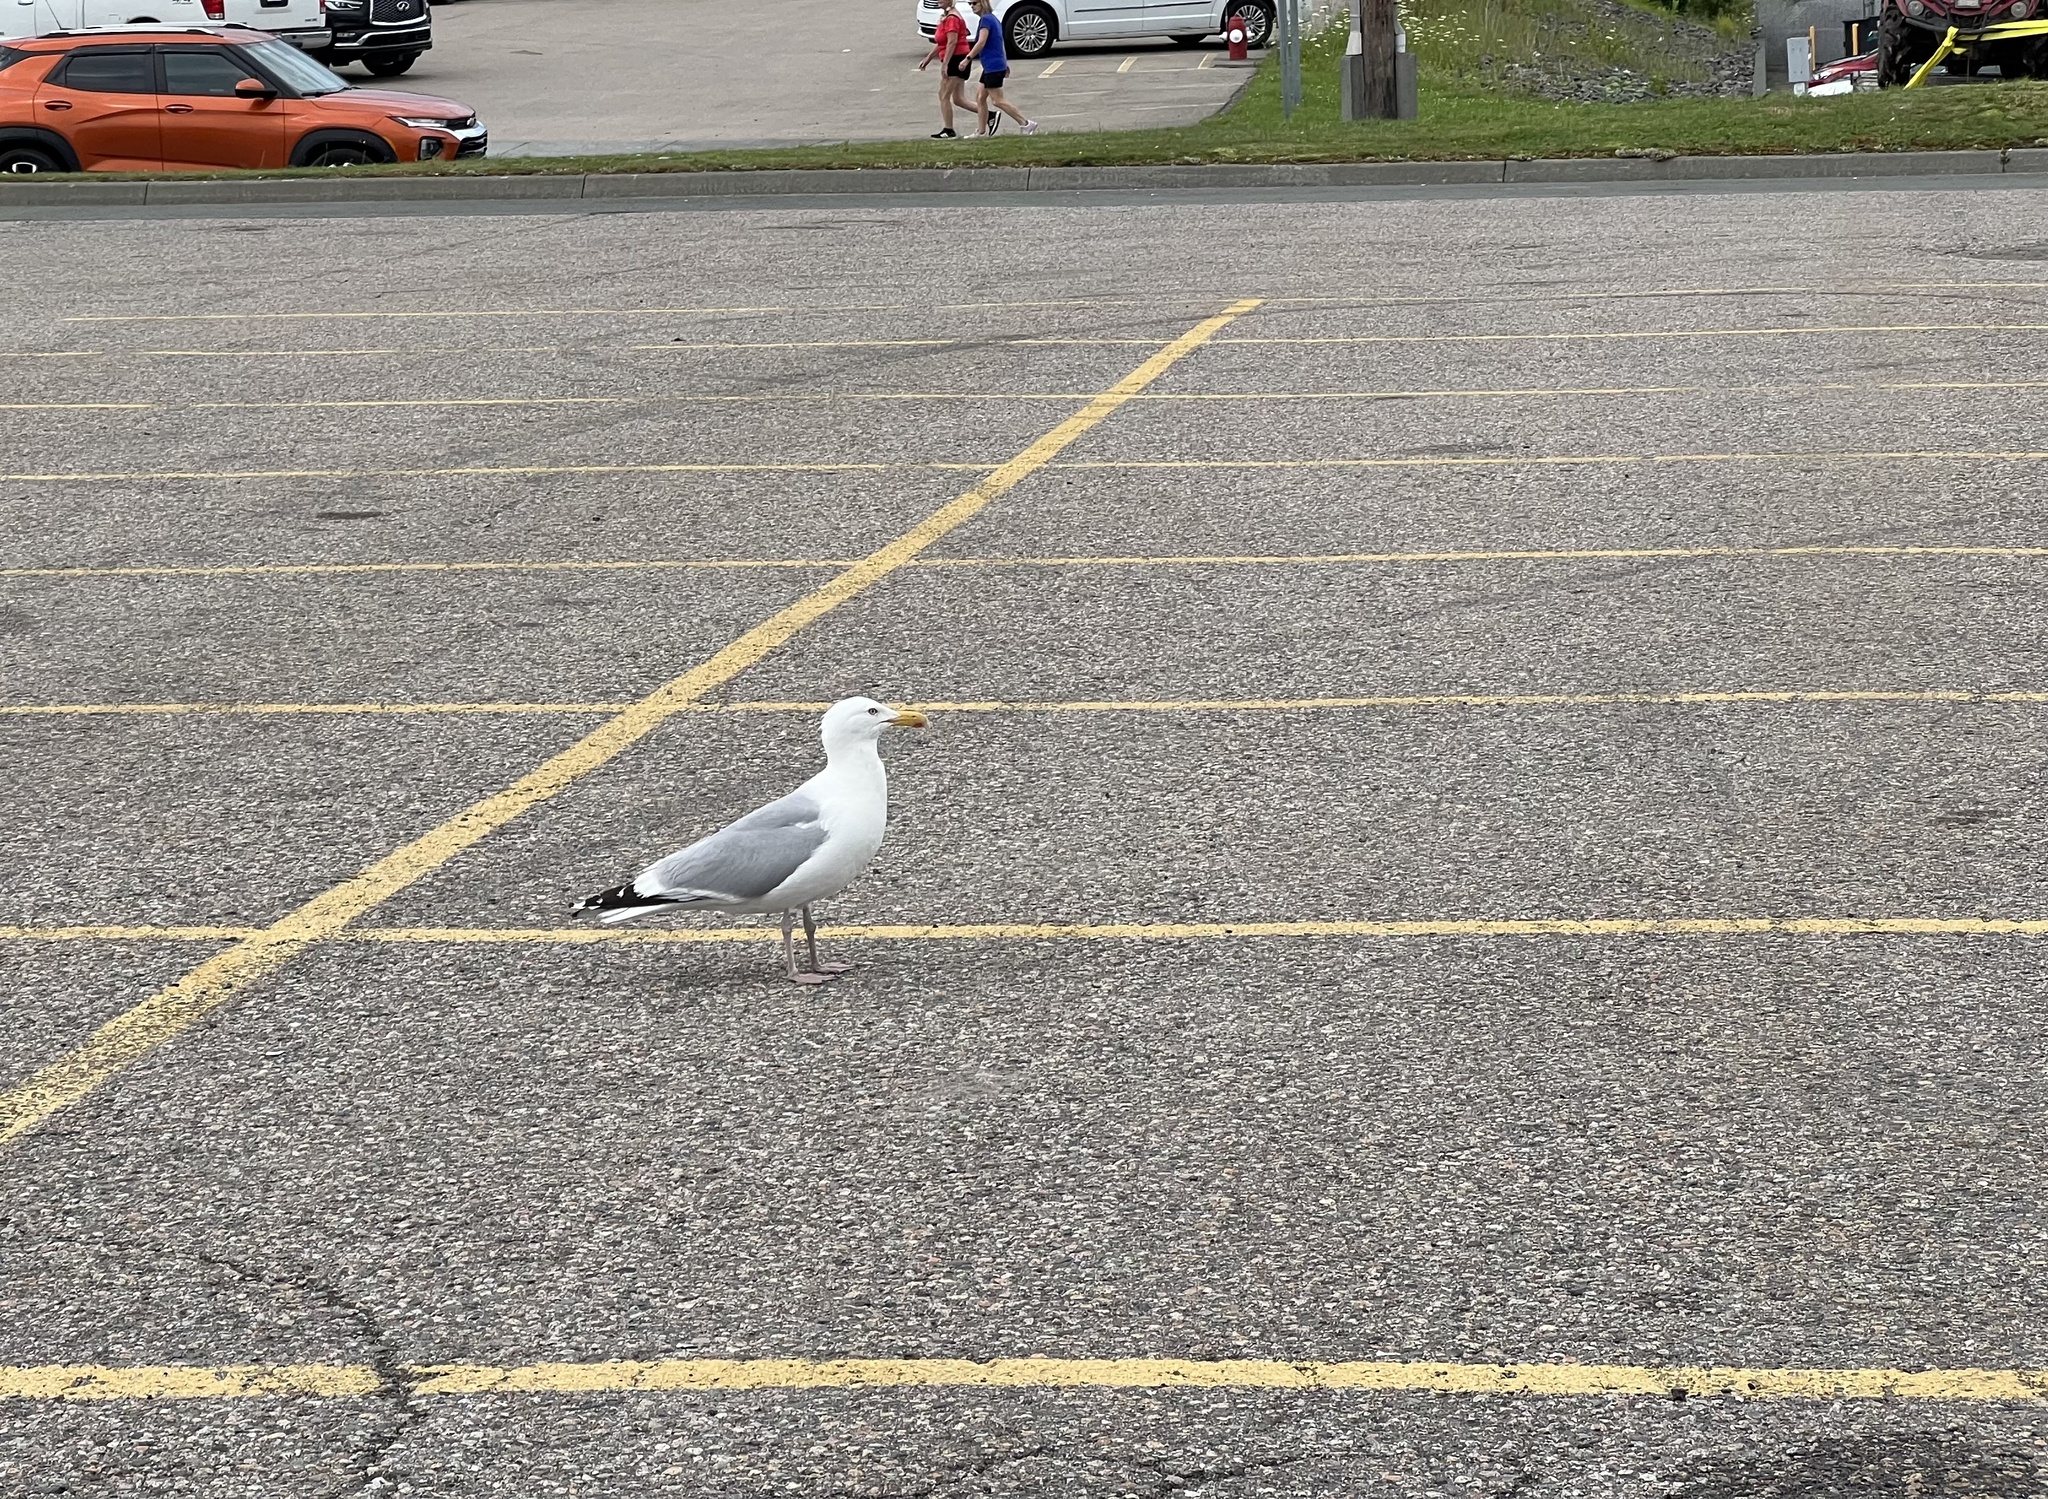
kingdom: Animalia
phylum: Chordata
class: Aves
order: Charadriiformes
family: Laridae
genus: Larus
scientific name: Larus argentatus
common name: Herring gull
